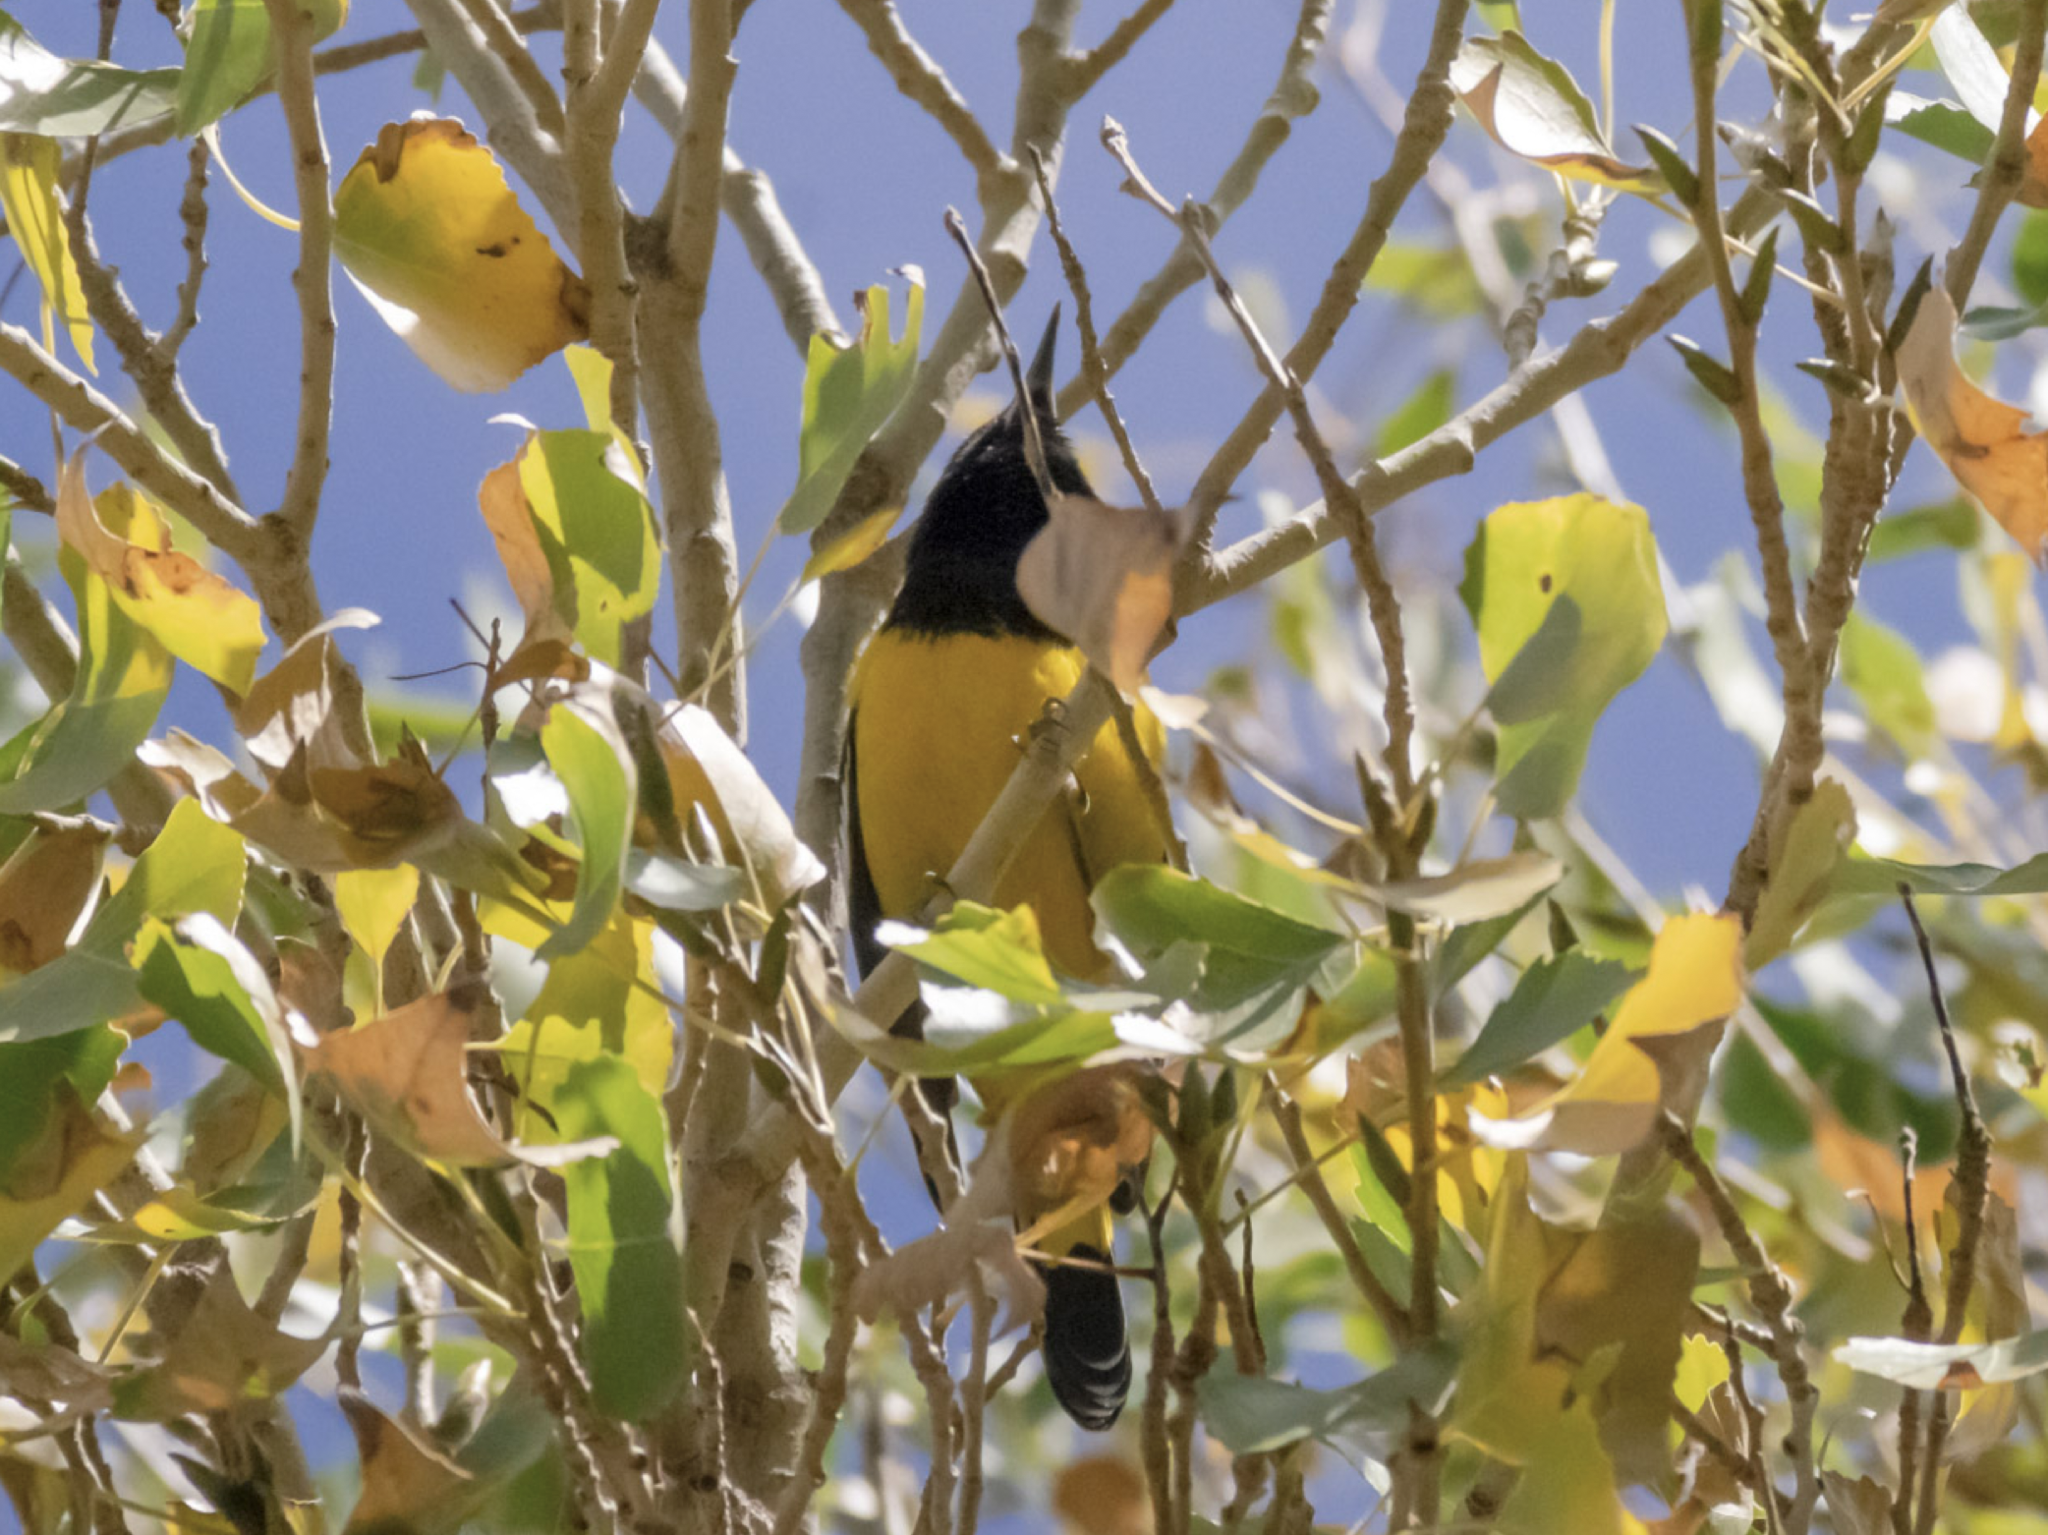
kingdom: Animalia
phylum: Chordata
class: Aves
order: Passeriformes
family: Icteridae
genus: Icterus
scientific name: Icterus parisorum
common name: Scott's oriole
